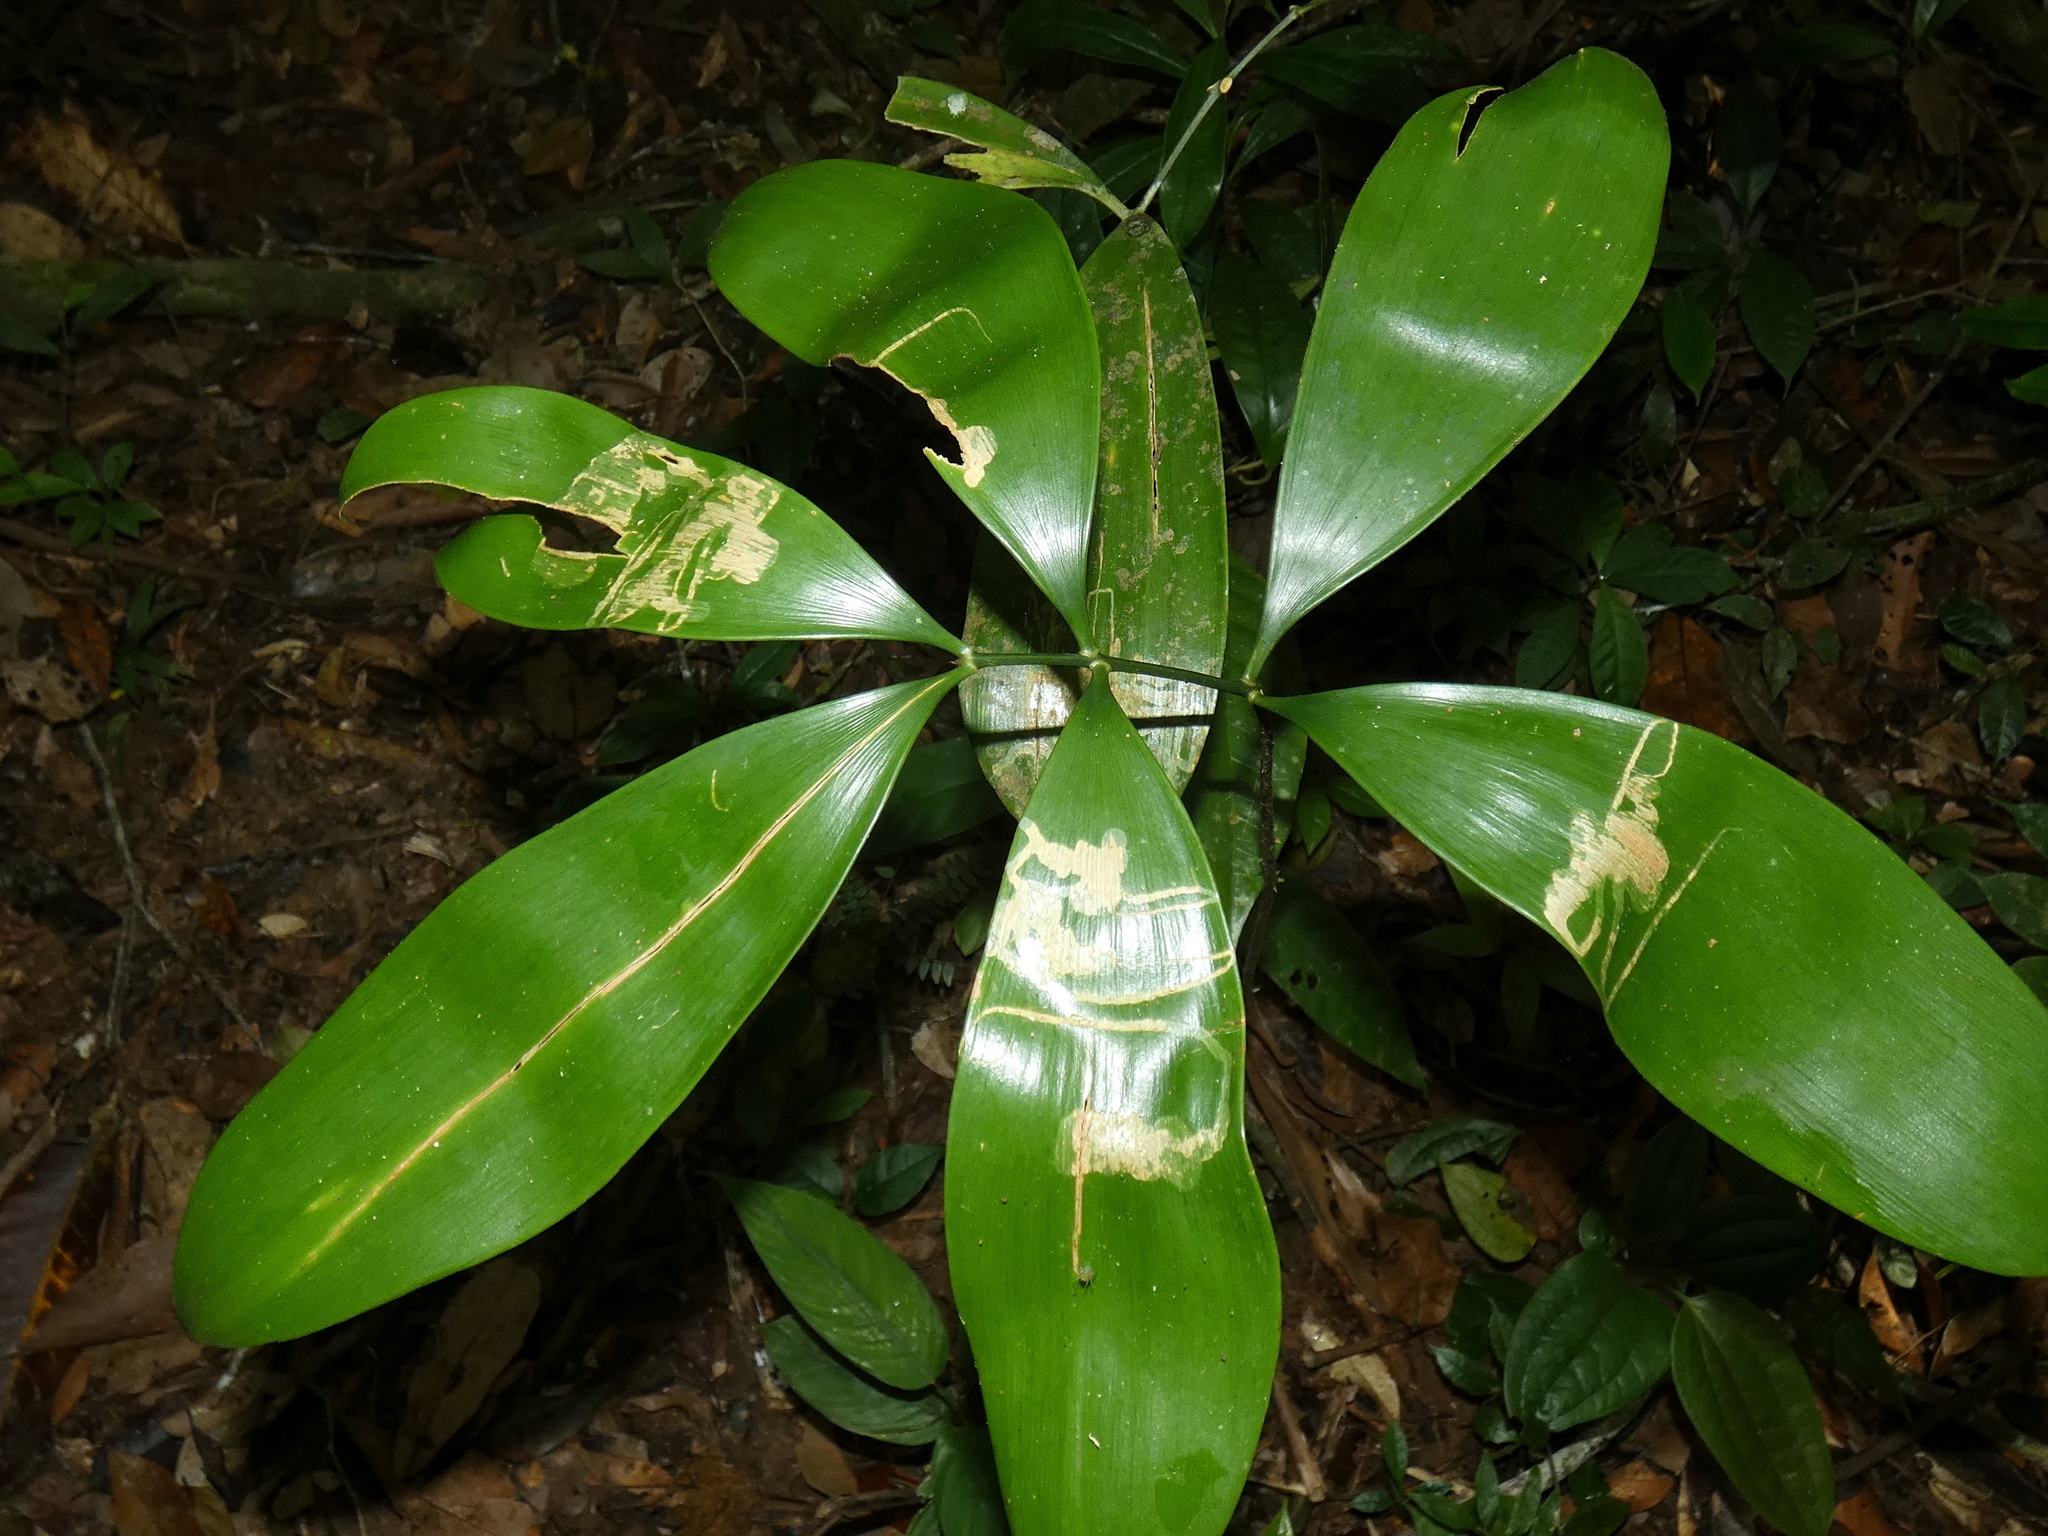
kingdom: Plantae
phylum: Tracheophyta
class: Cycadopsida
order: Cycadales
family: Zamiaceae
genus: Zamia
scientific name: Zamia cunaria
